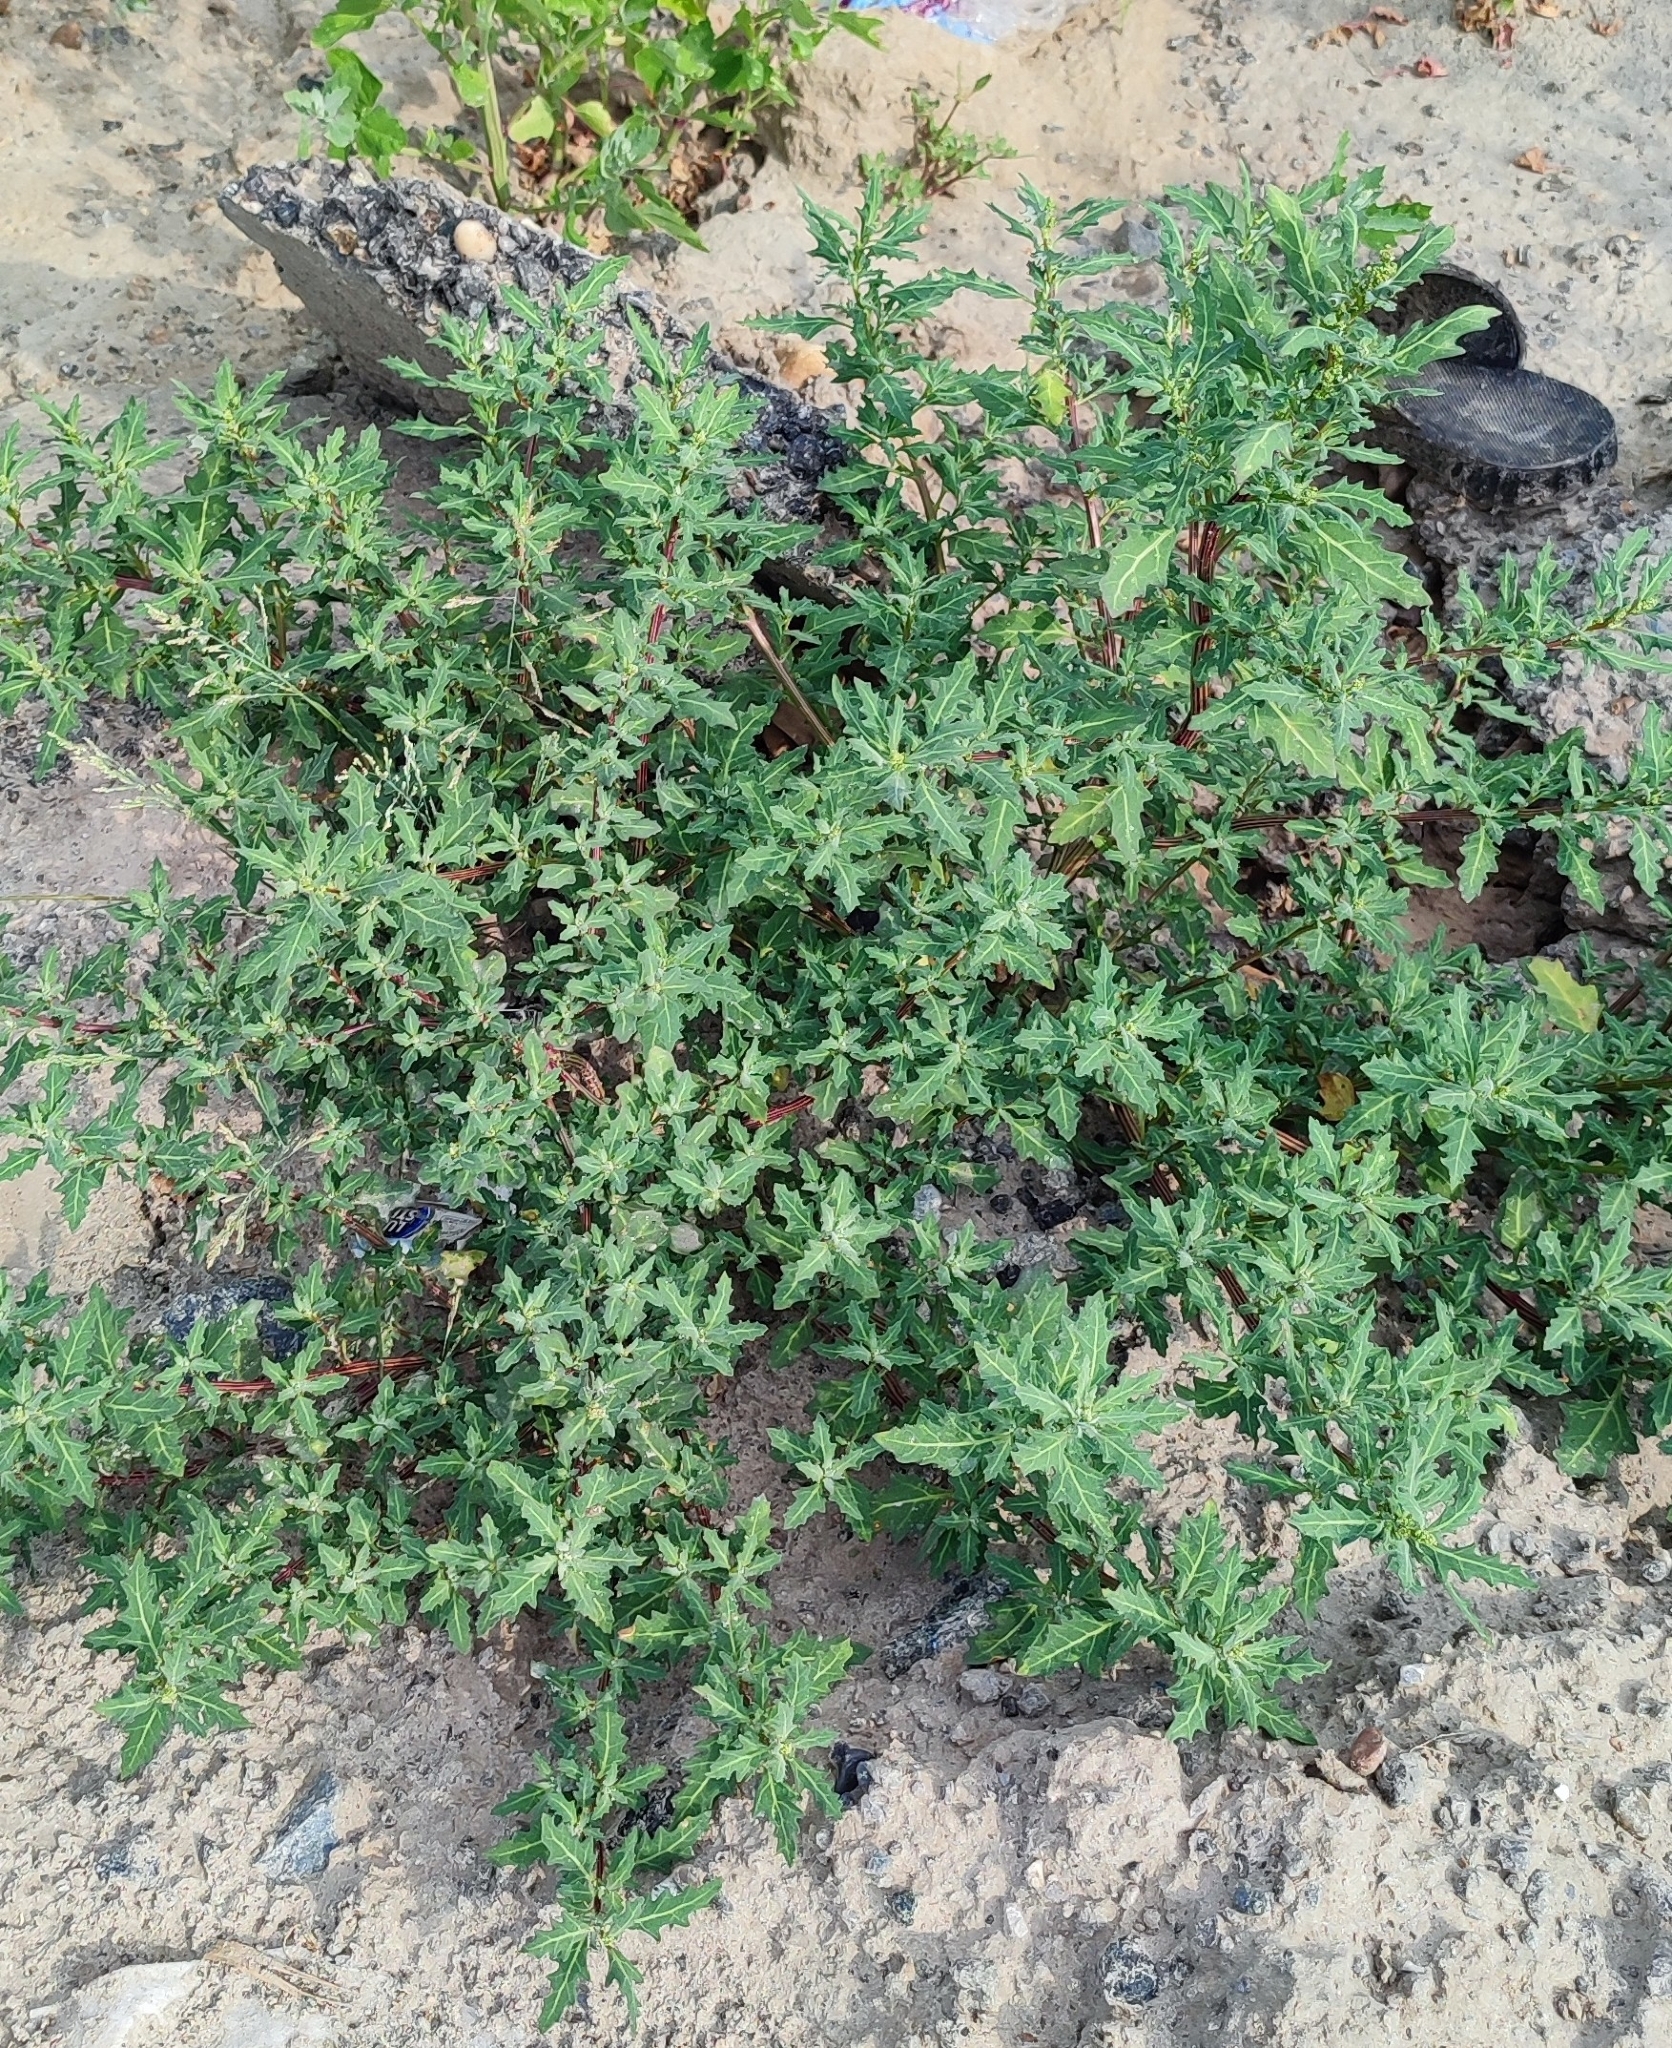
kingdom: Plantae
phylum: Tracheophyta
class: Magnoliopsida
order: Caryophyllales
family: Amaranthaceae
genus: Oxybasis
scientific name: Oxybasis glauca
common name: Glaucous goosefoot
